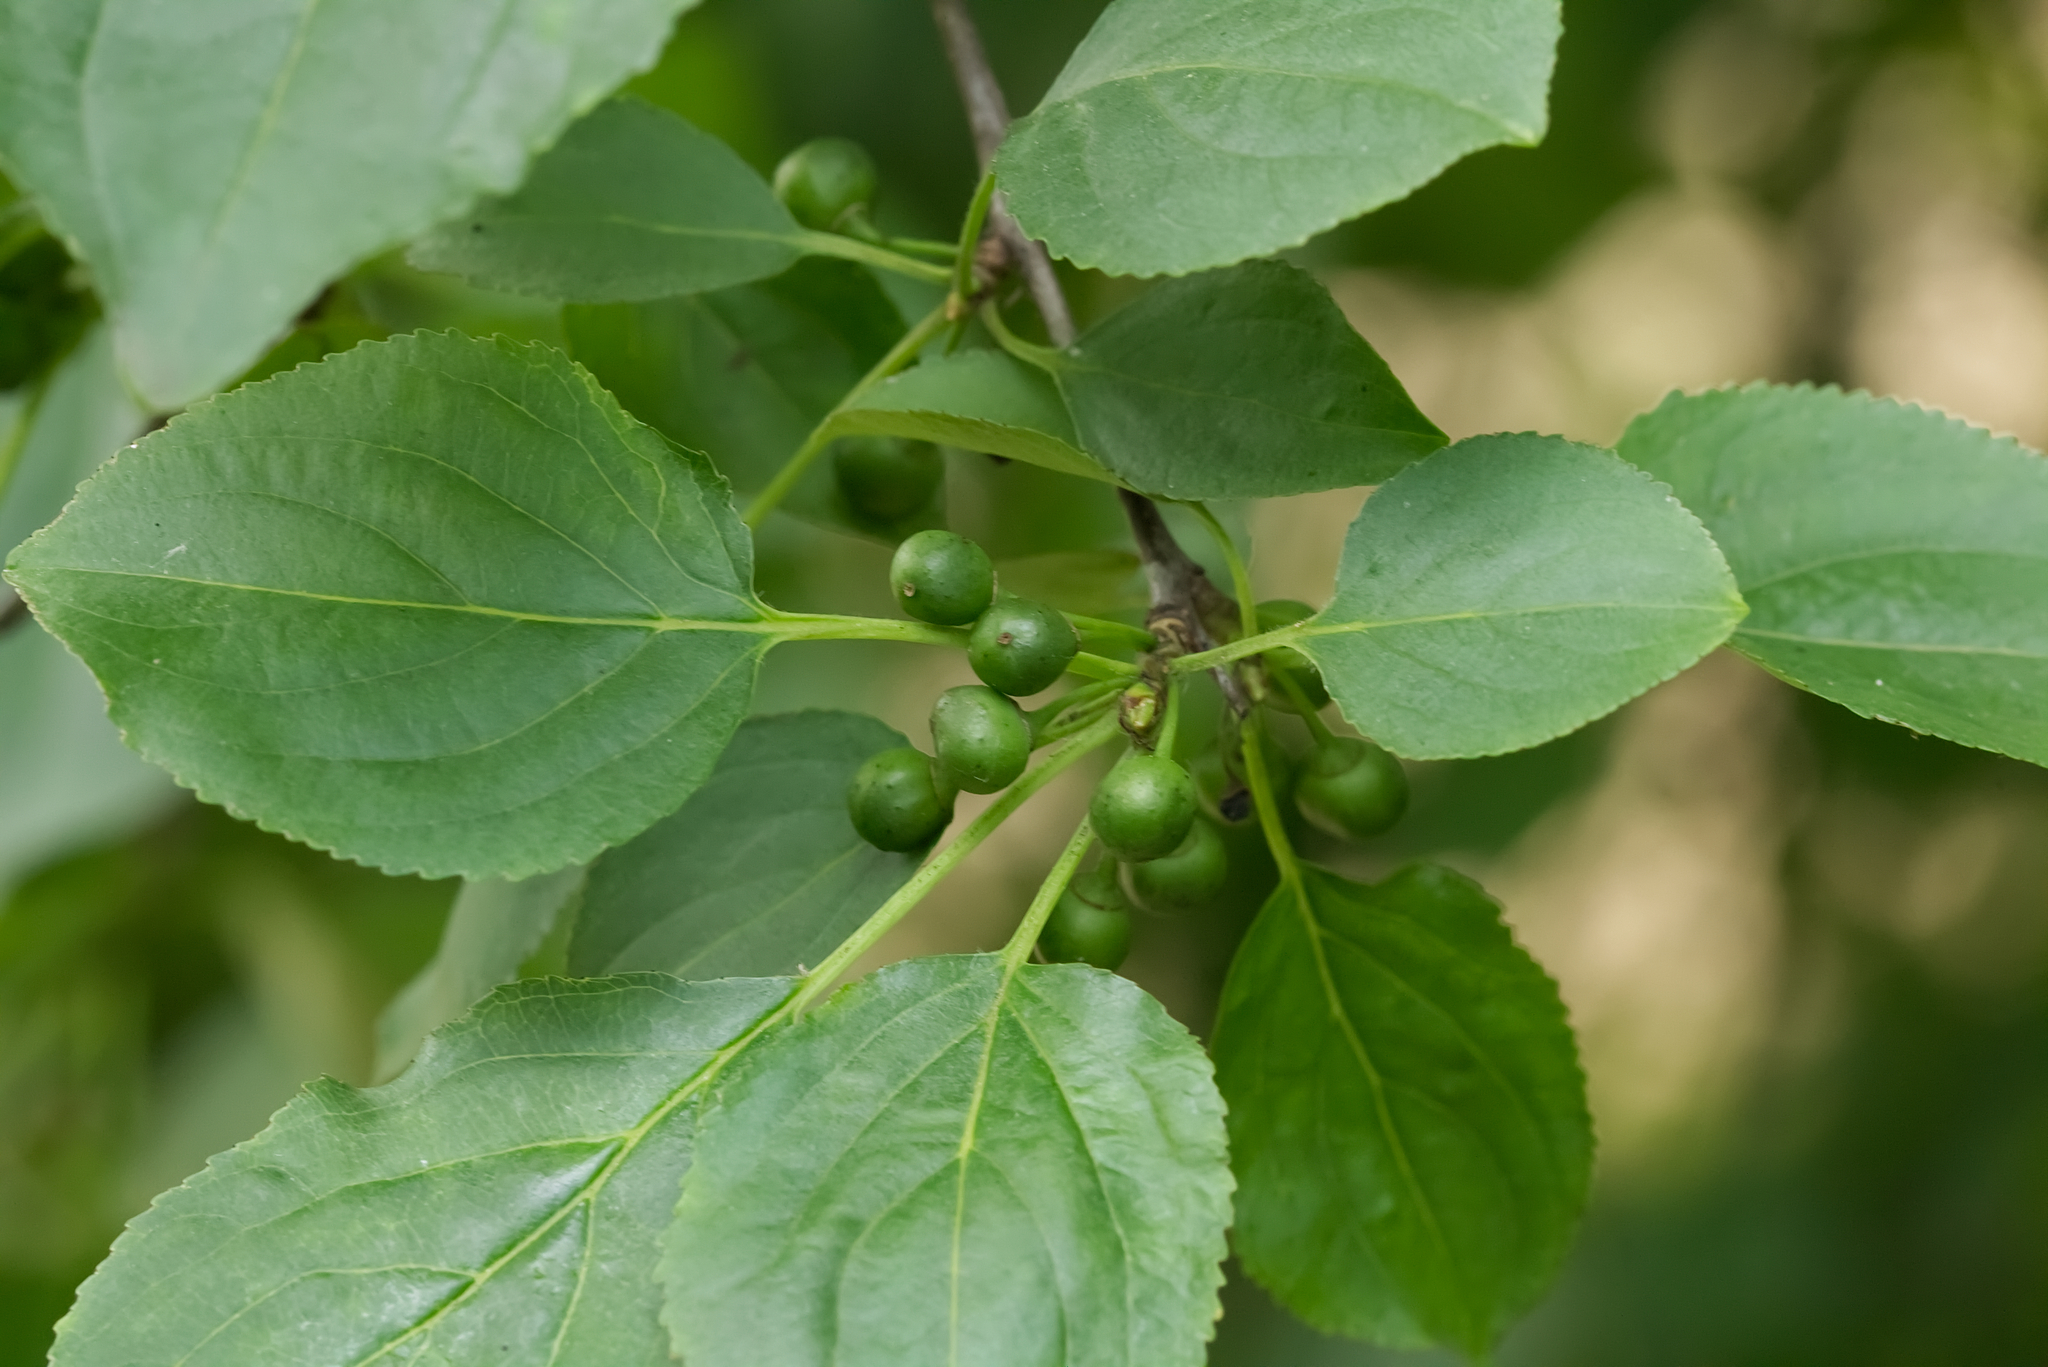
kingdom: Plantae
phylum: Tracheophyta
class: Magnoliopsida
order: Rosales
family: Rhamnaceae
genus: Rhamnus
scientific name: Rhamnus cathartica
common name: Common buckthorn
